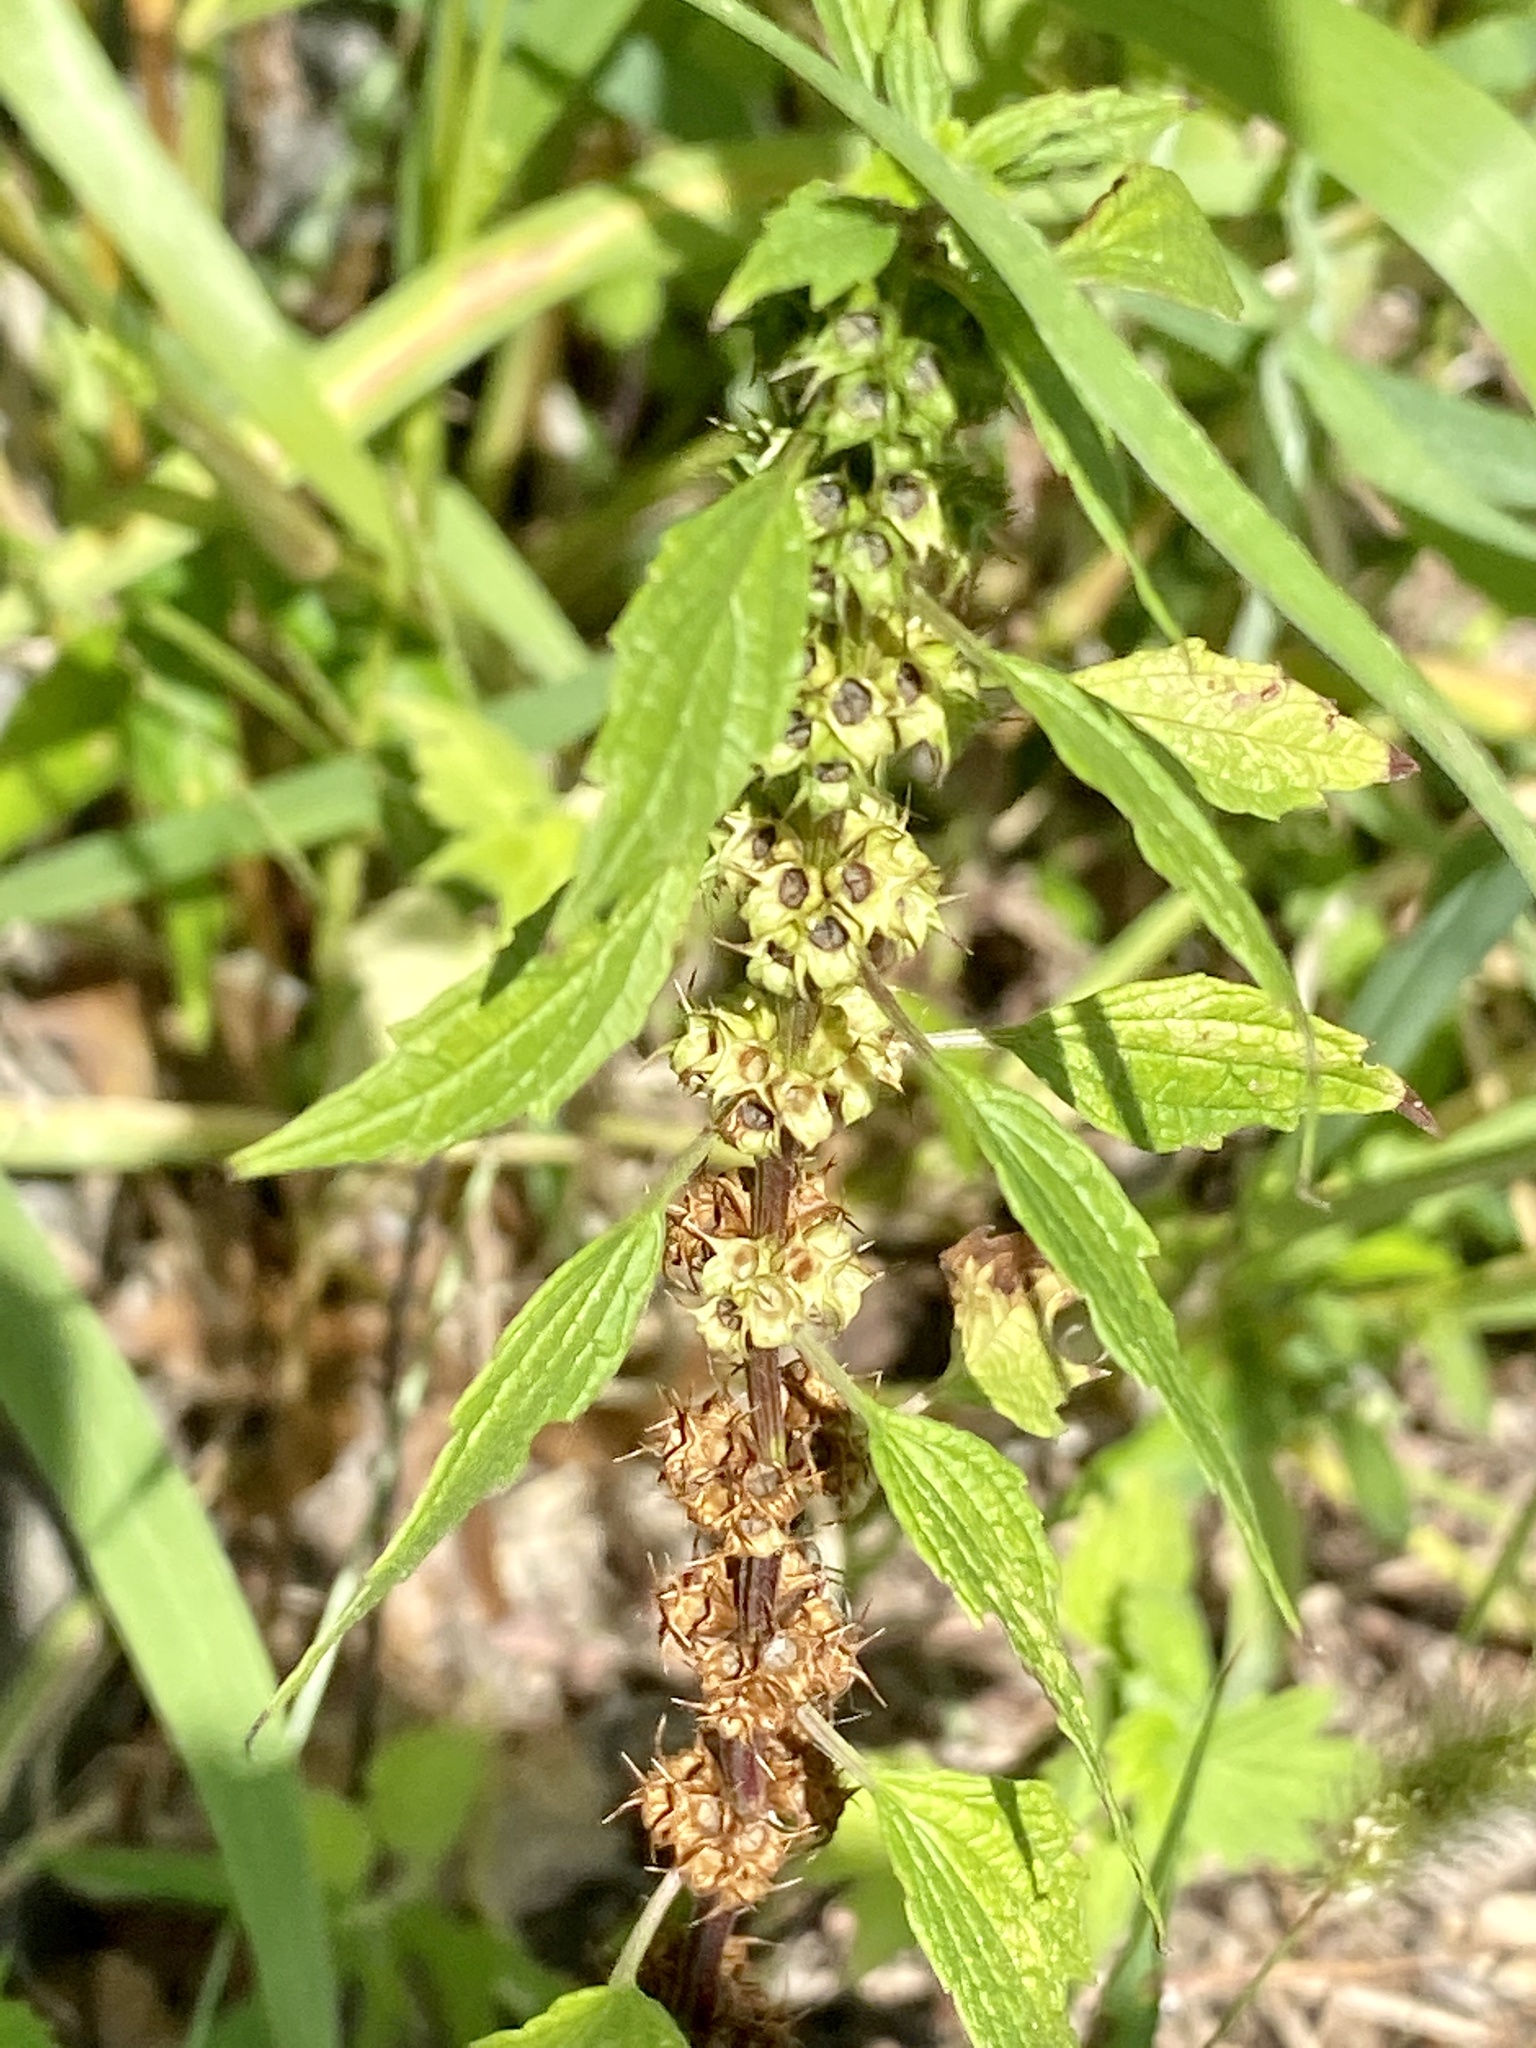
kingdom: Plantae
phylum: Tracheophyta
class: Magnoliopsida
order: Lamiales
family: Lamiaceae
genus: Leonurus
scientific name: Leonurus cardiaca
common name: Motherwort
